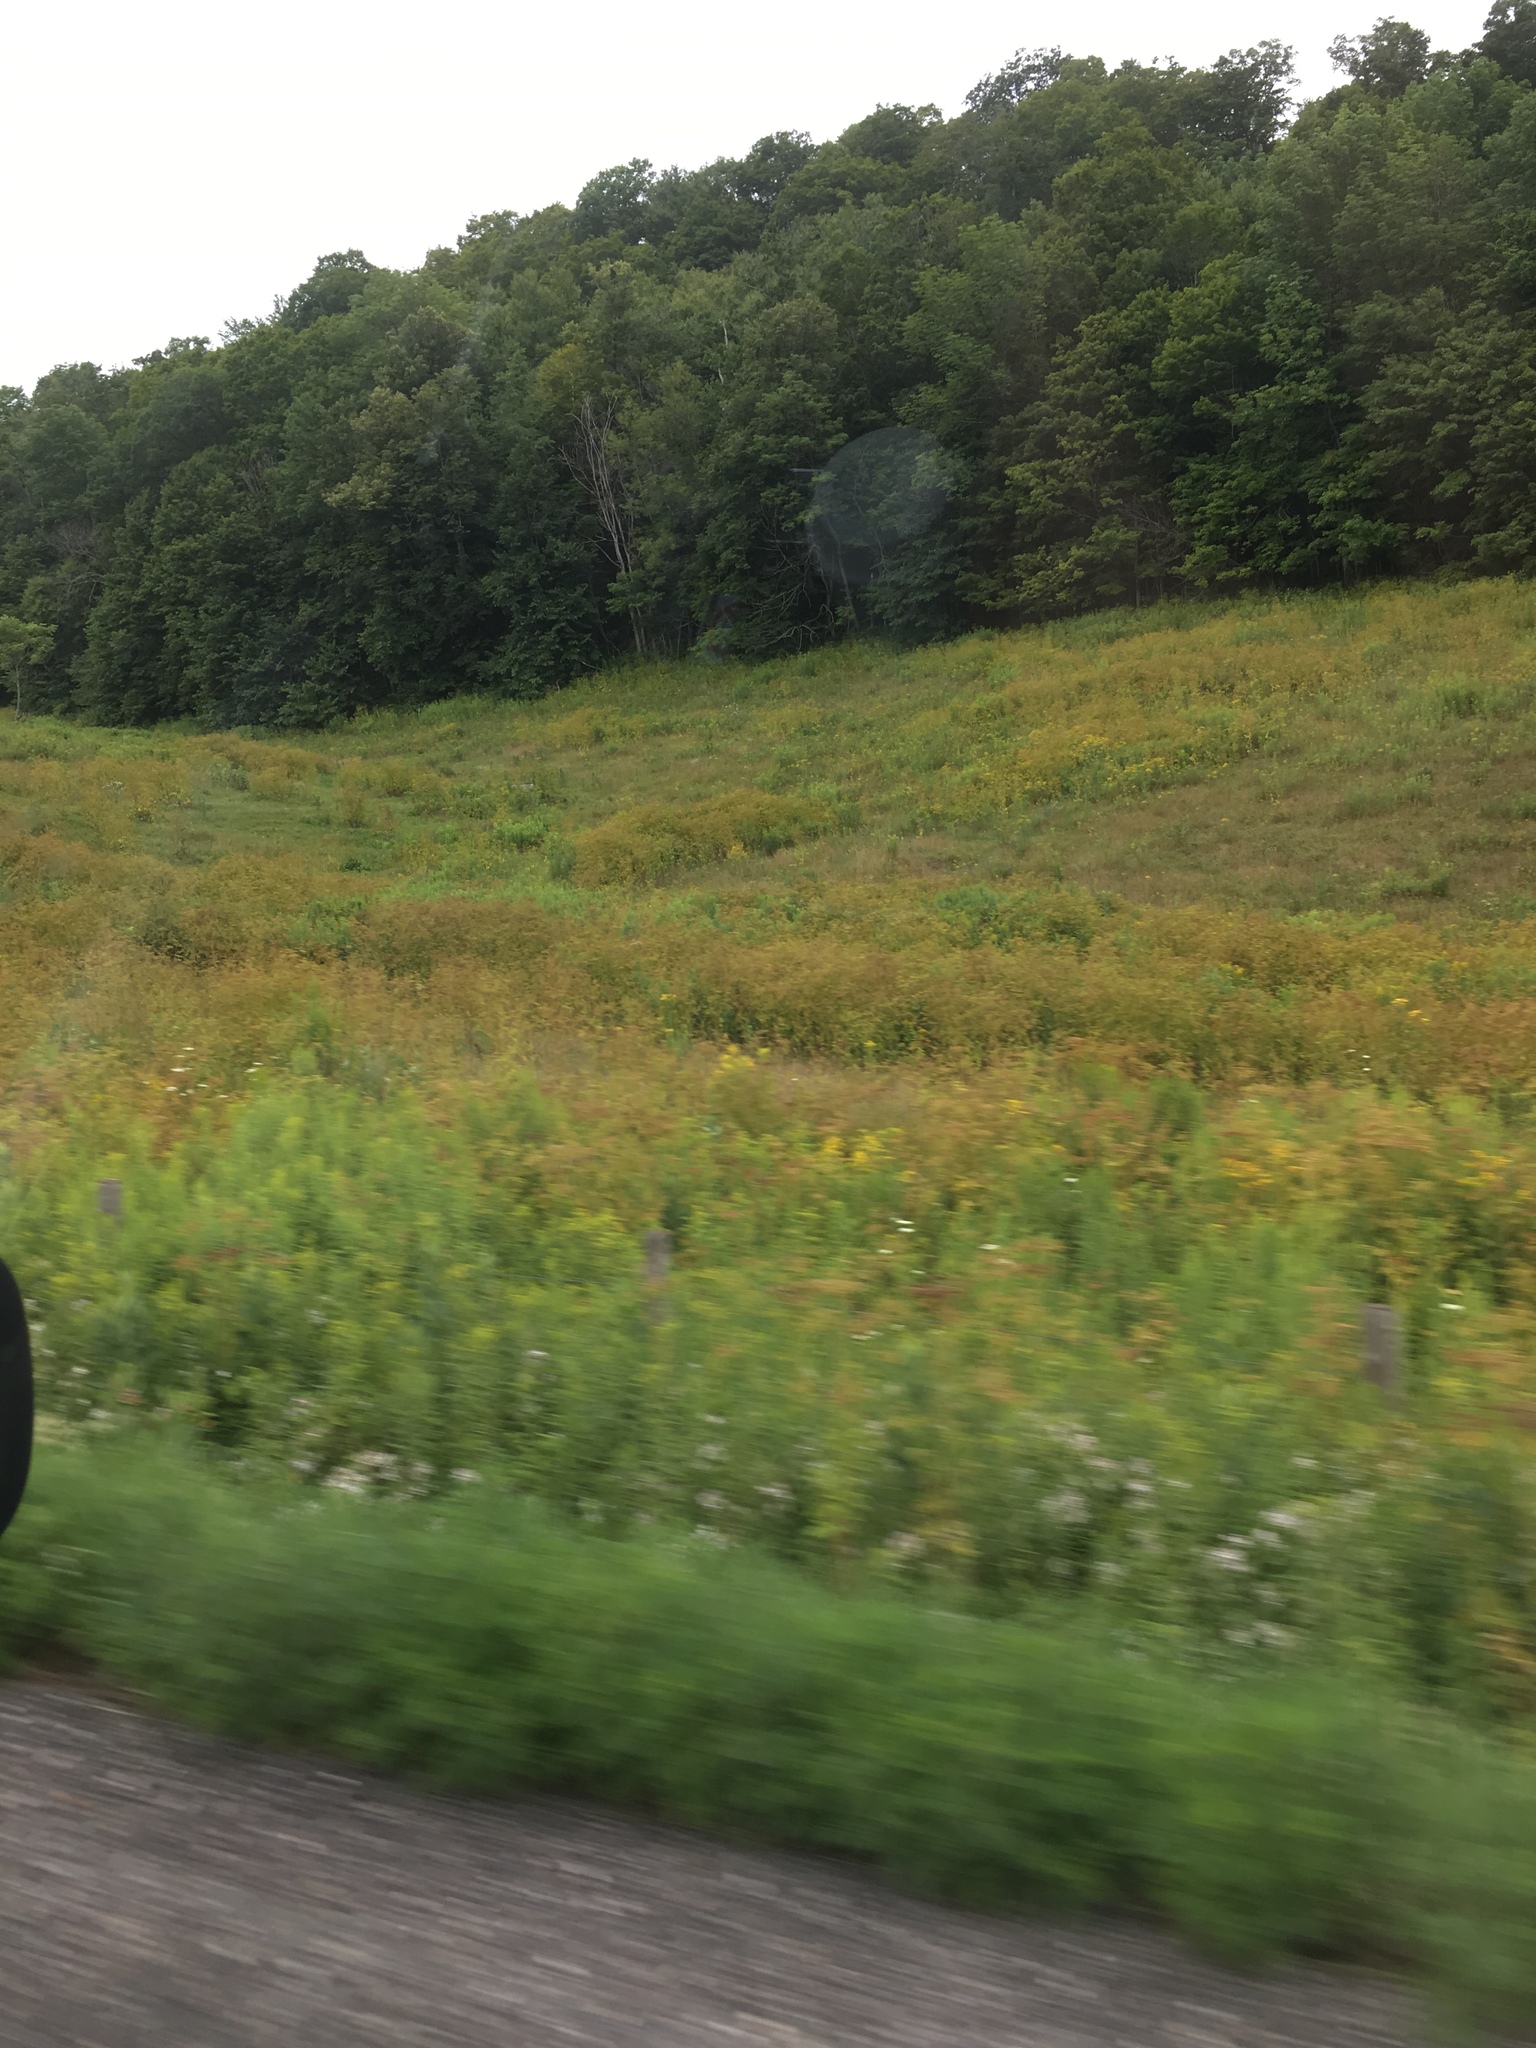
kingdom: Plantae
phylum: Tracheophyta
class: Magnoliopsida
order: Apiales
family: Apiaceae
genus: Pastinaca
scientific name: Pastinaca sativa
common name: Wild parsnip
